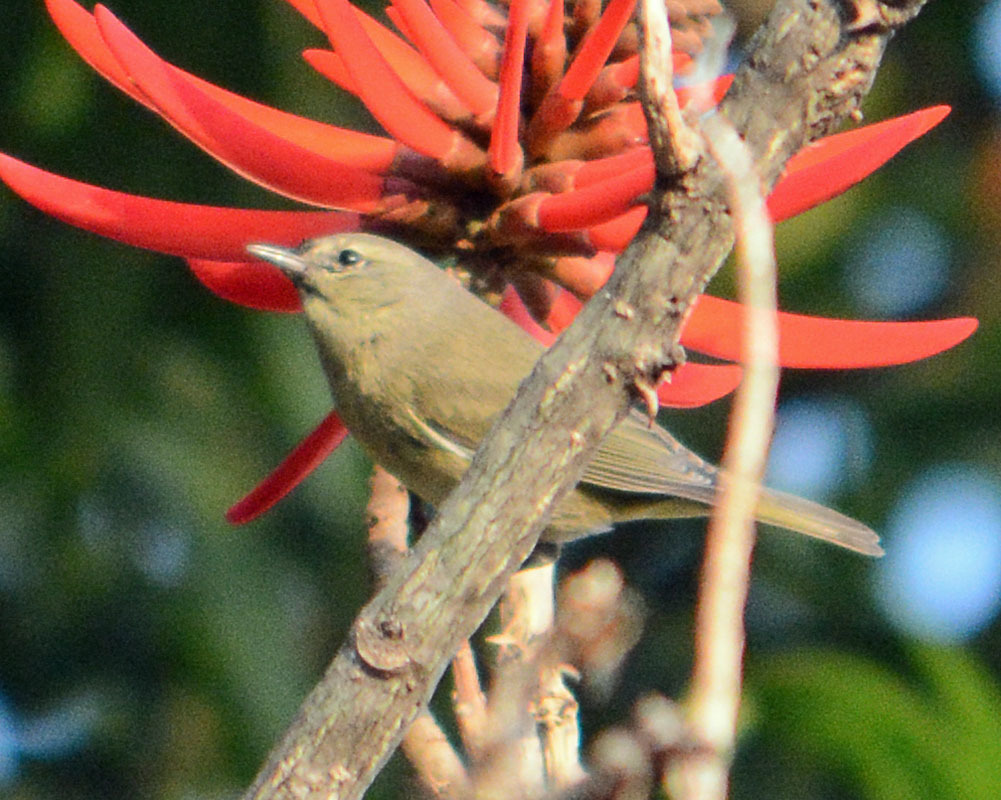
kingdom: Animalia
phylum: Chordata
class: Aves
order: Passeriformes
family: Parulidae
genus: Leiothlypis
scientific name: Leiothlypis celata
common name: Orange-crowned warbler
